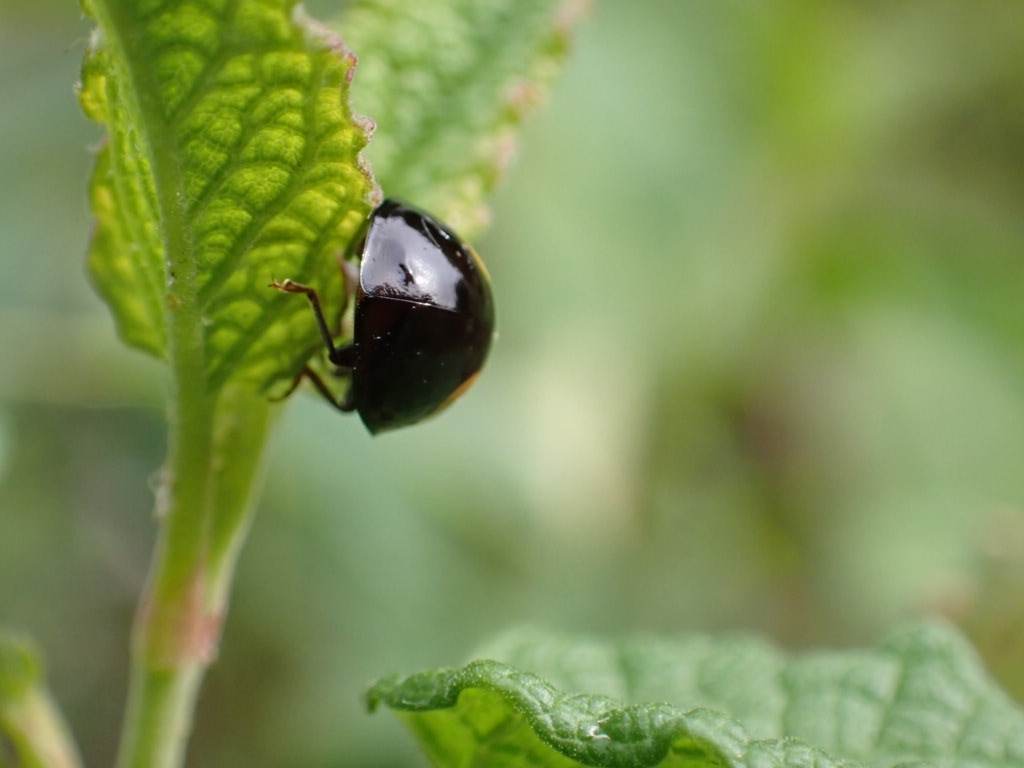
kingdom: Animalia
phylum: Arthropoda
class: Insecta
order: Coleoptera
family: Coccinellidae
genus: Harmonia
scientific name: Harmonia axyridis
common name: Harlequin ladybird
